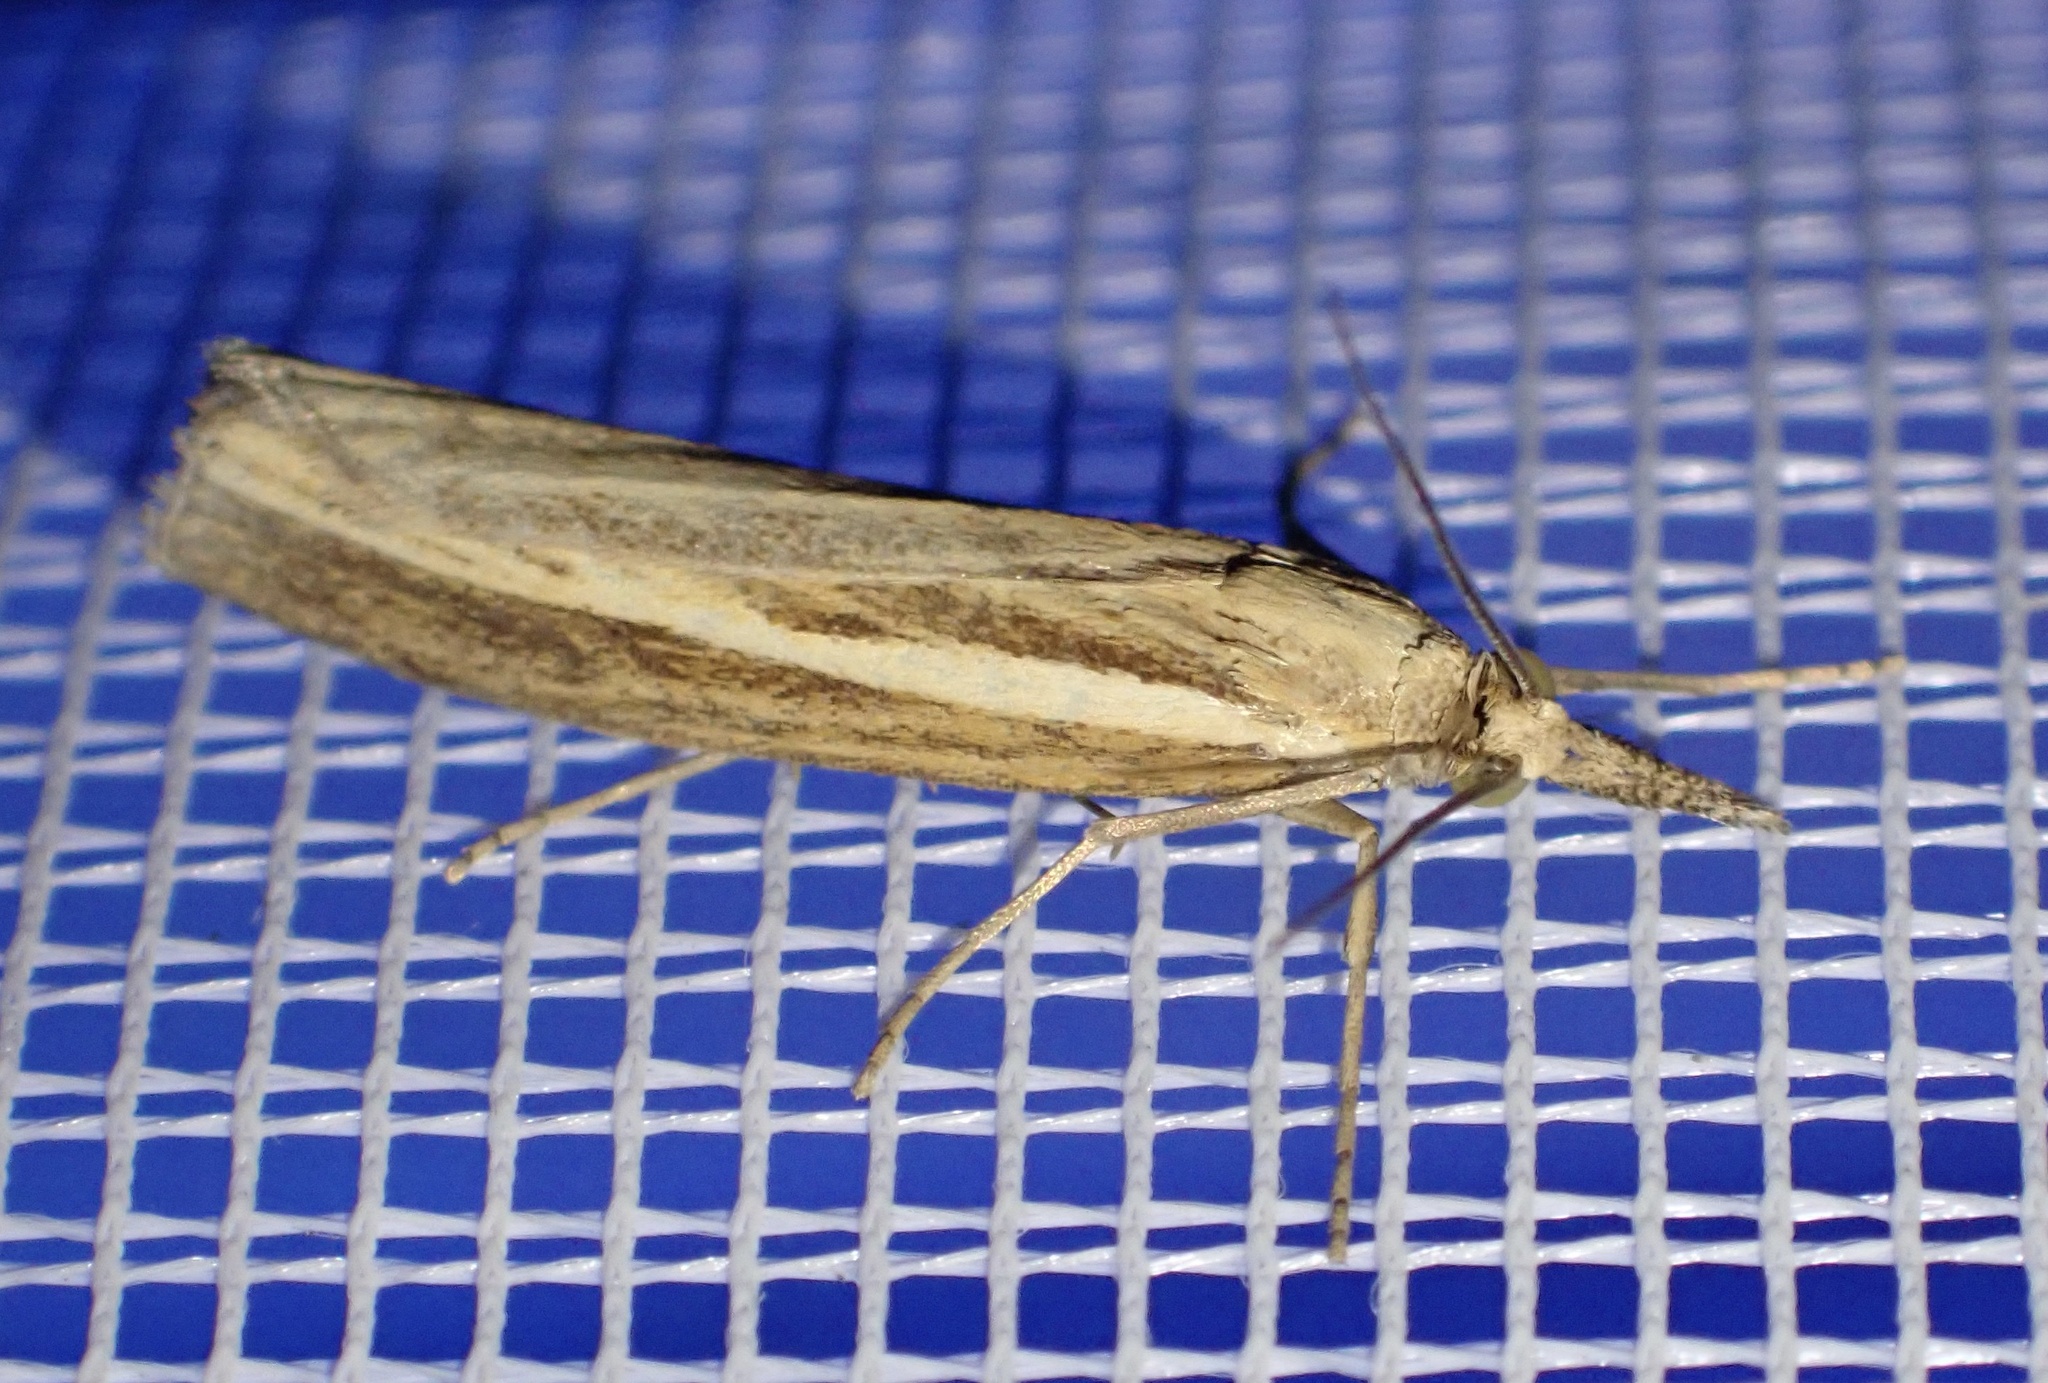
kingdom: Animalia
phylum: Arthropoda
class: Insecta
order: Lepidoptera
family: Crambidae
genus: Agriphila
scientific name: Agriphila tristellus
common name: Common grass-veneer
